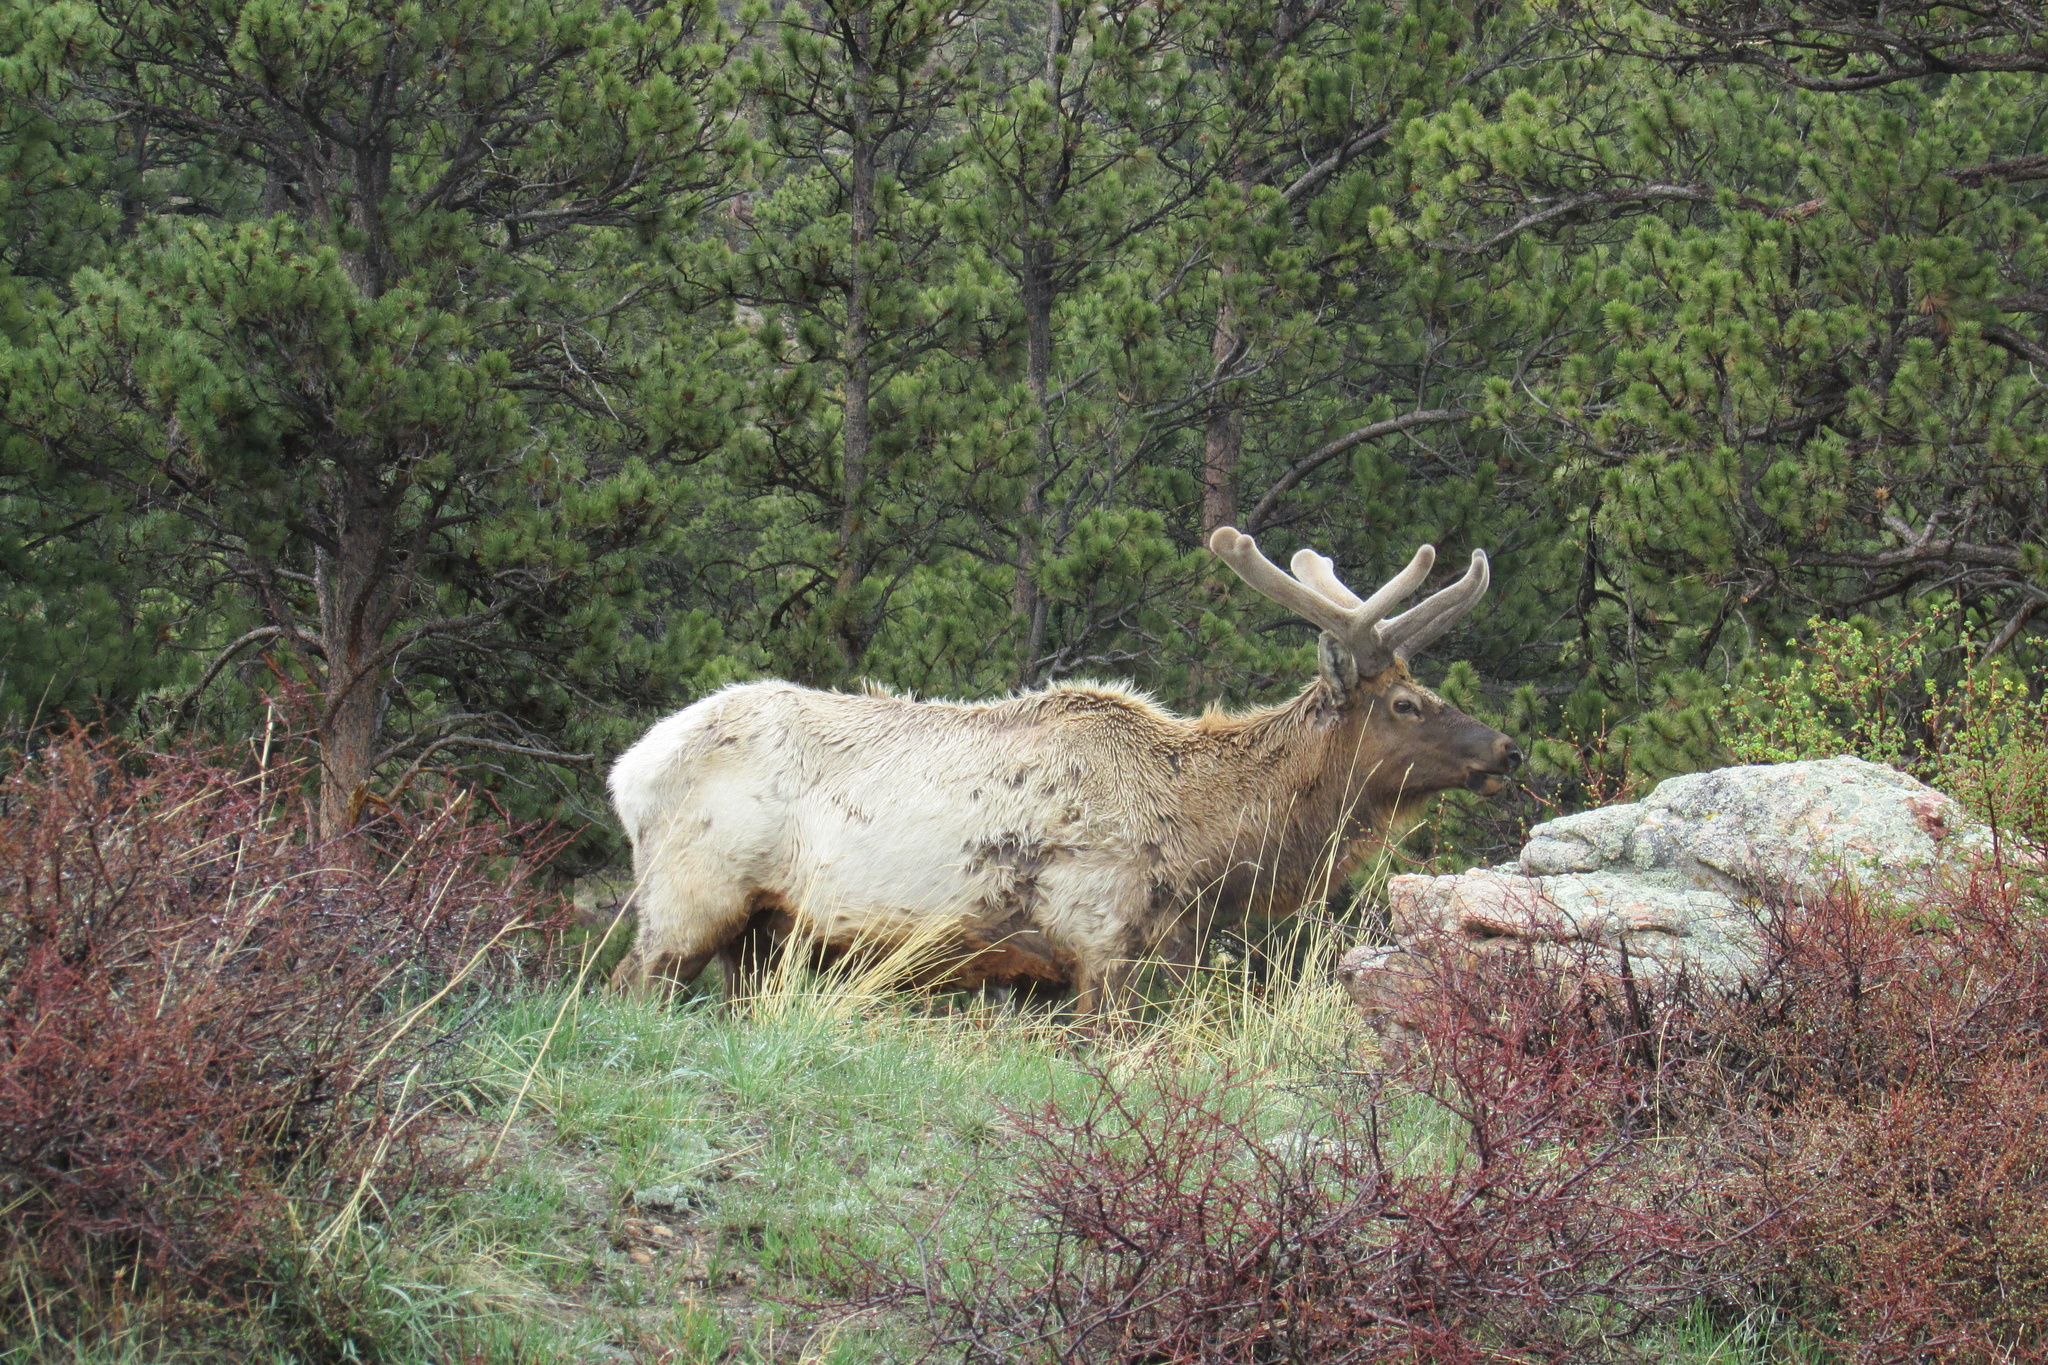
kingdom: Animalia
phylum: Chordata
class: Mammalia
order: Artiodactyla
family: Cervidae
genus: Cervus
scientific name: Cervus elaphus
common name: Red deer
